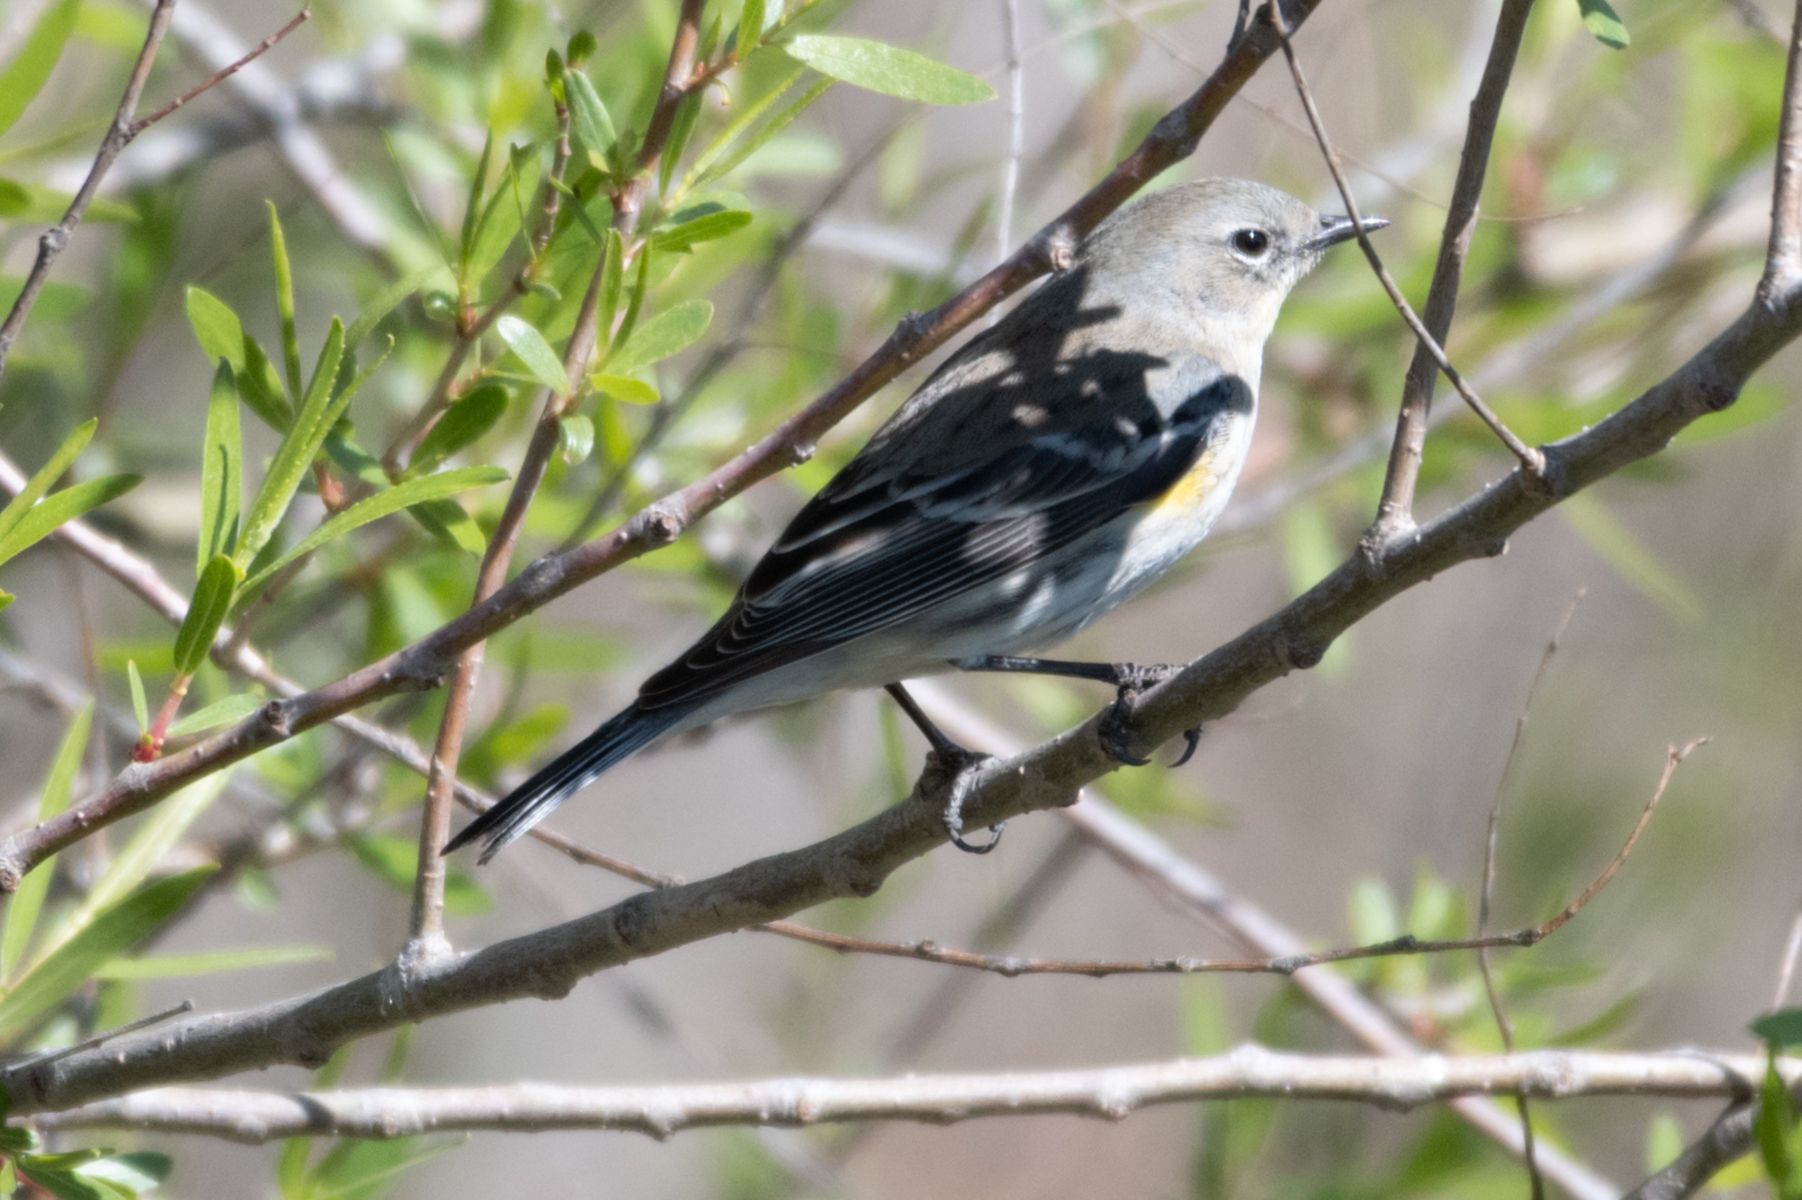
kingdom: Animalia
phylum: Chordata
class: Aves
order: Passeriformes
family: Parulidae
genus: Setophaga
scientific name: Setophaga coronata
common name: Myrtle warbler
